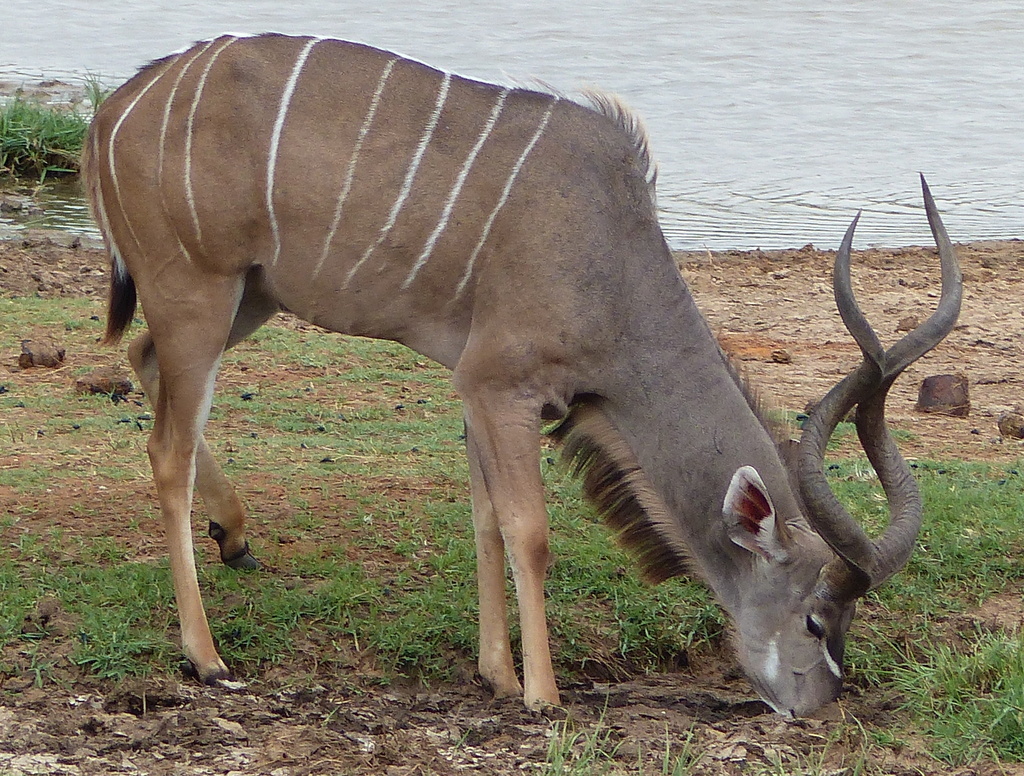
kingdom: Animalia
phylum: Chordata
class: Mammalia
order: Artiodactyla
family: Bovidae
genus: Tragelaphus
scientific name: Tragelaphus strepsiceros
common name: Greater kudu
